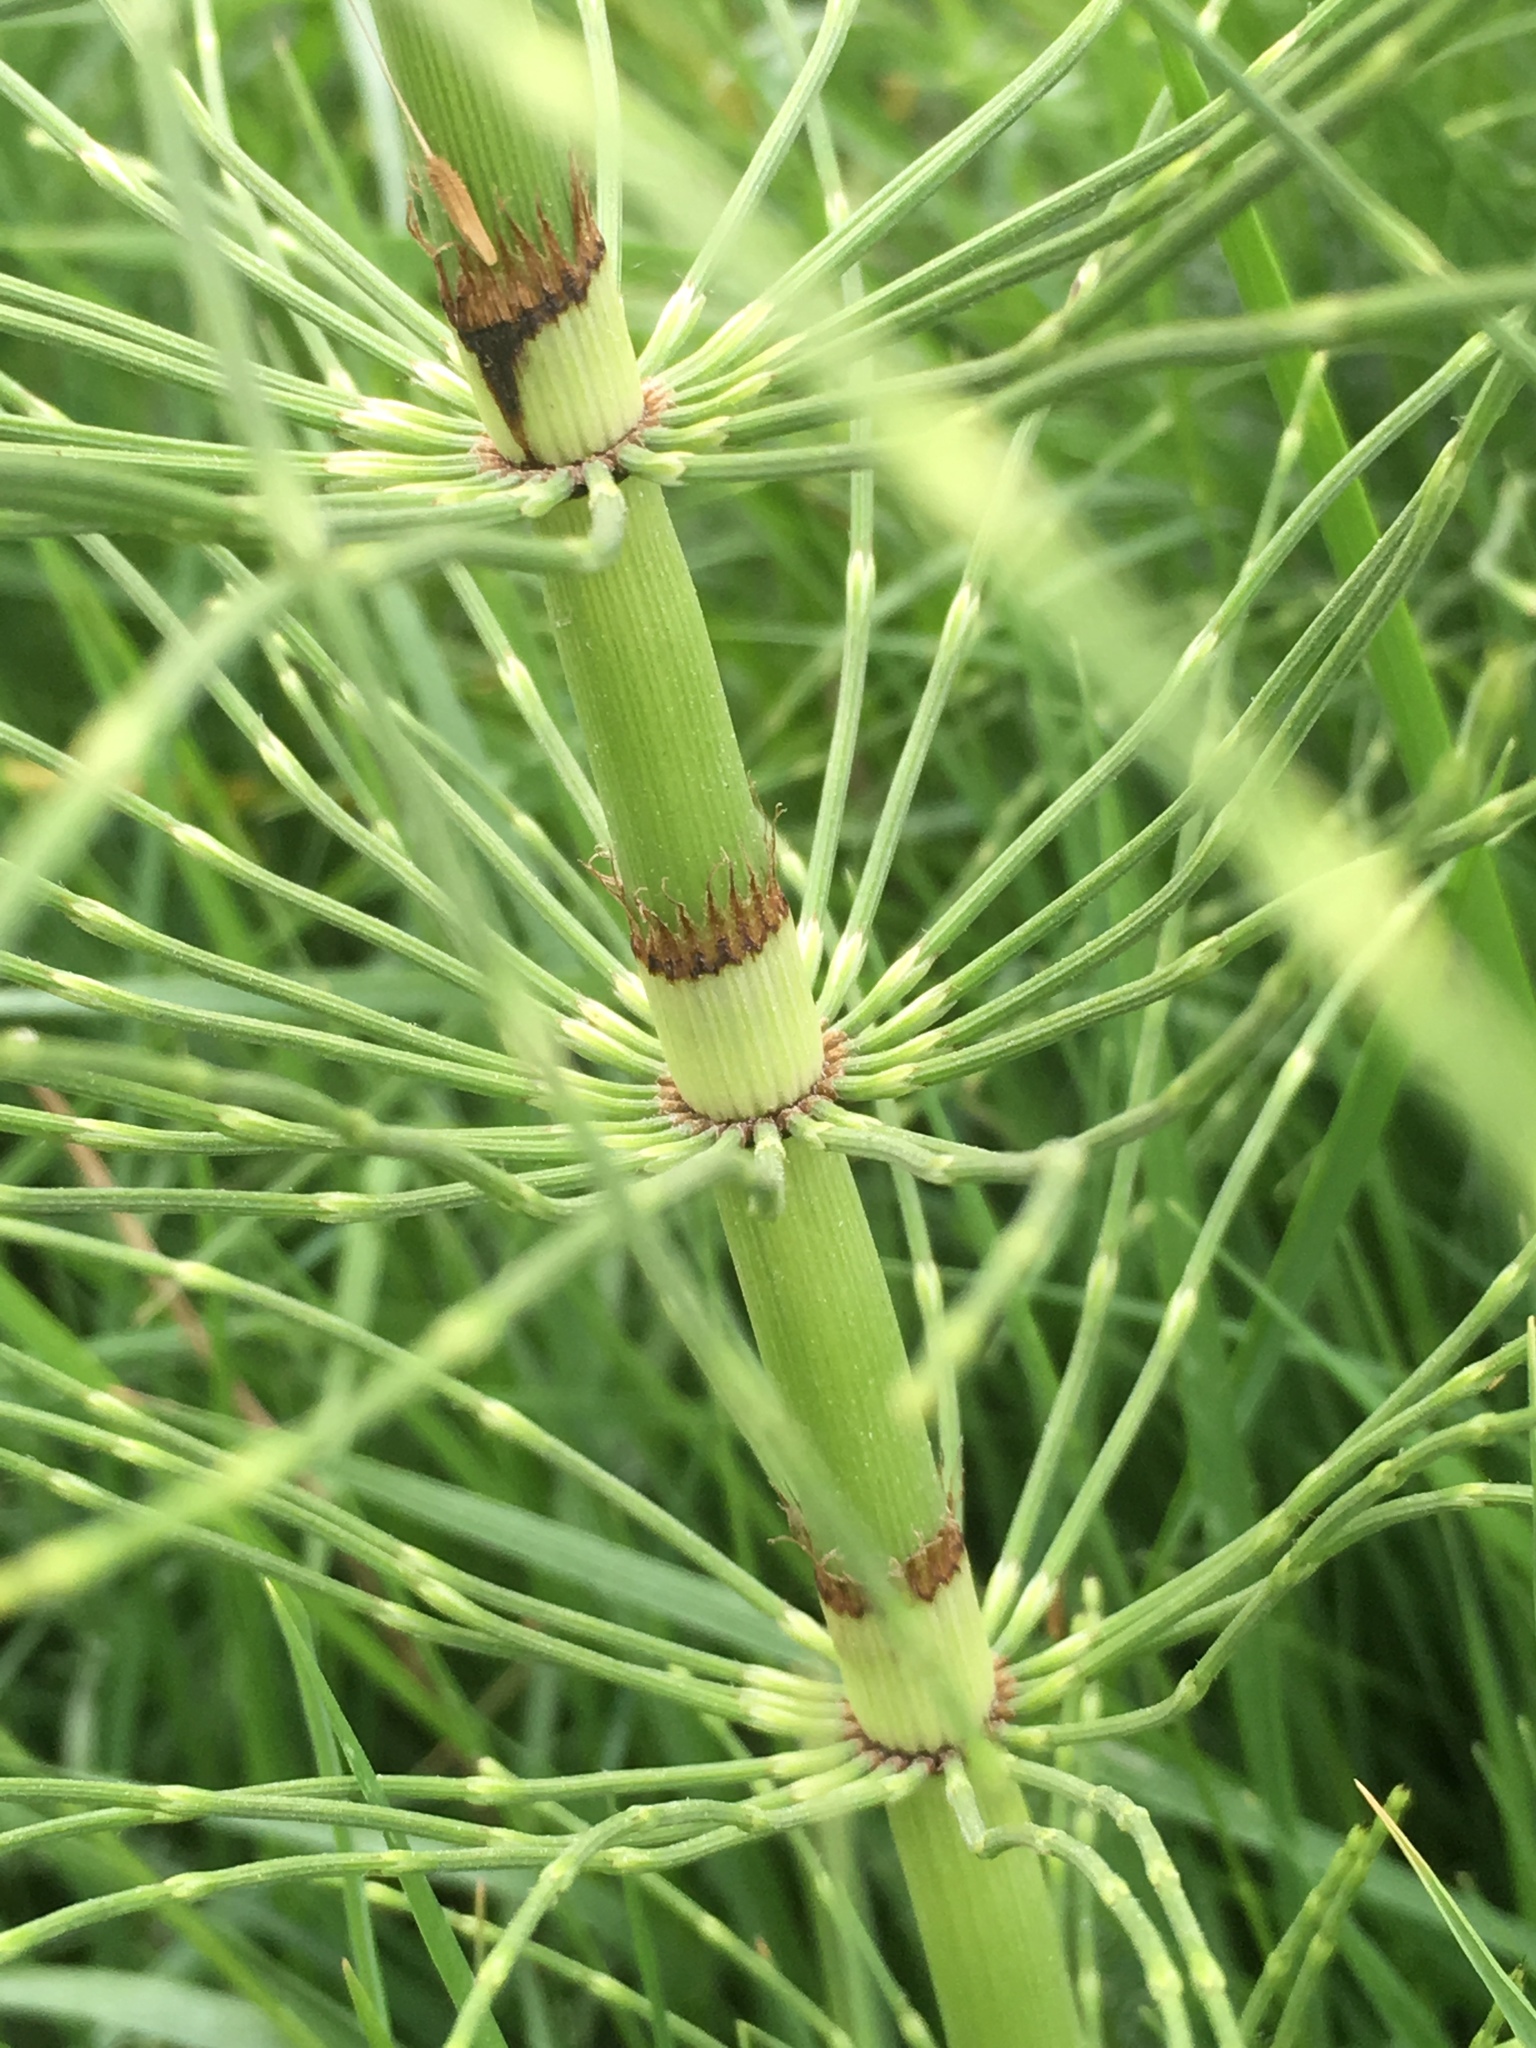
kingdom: Plantae
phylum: Tracheophyta
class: Polypodiopsida
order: Equisetales
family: Equisetaceae
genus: Equisetum
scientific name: Equisetum braunii
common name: Braun's horsetail
